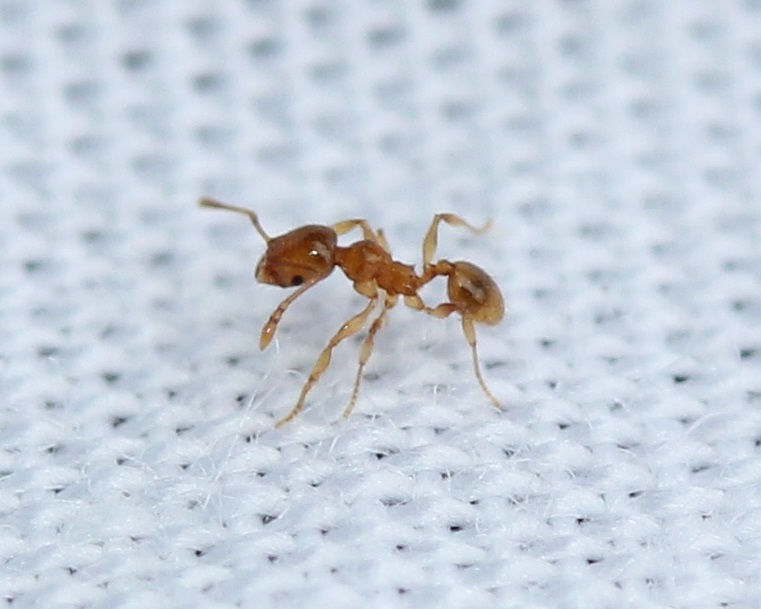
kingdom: Animalia
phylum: Arthropoda
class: Insecta
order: Hymenoptera
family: Formicidae
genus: Pheidole
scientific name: Pheidole tysoni
